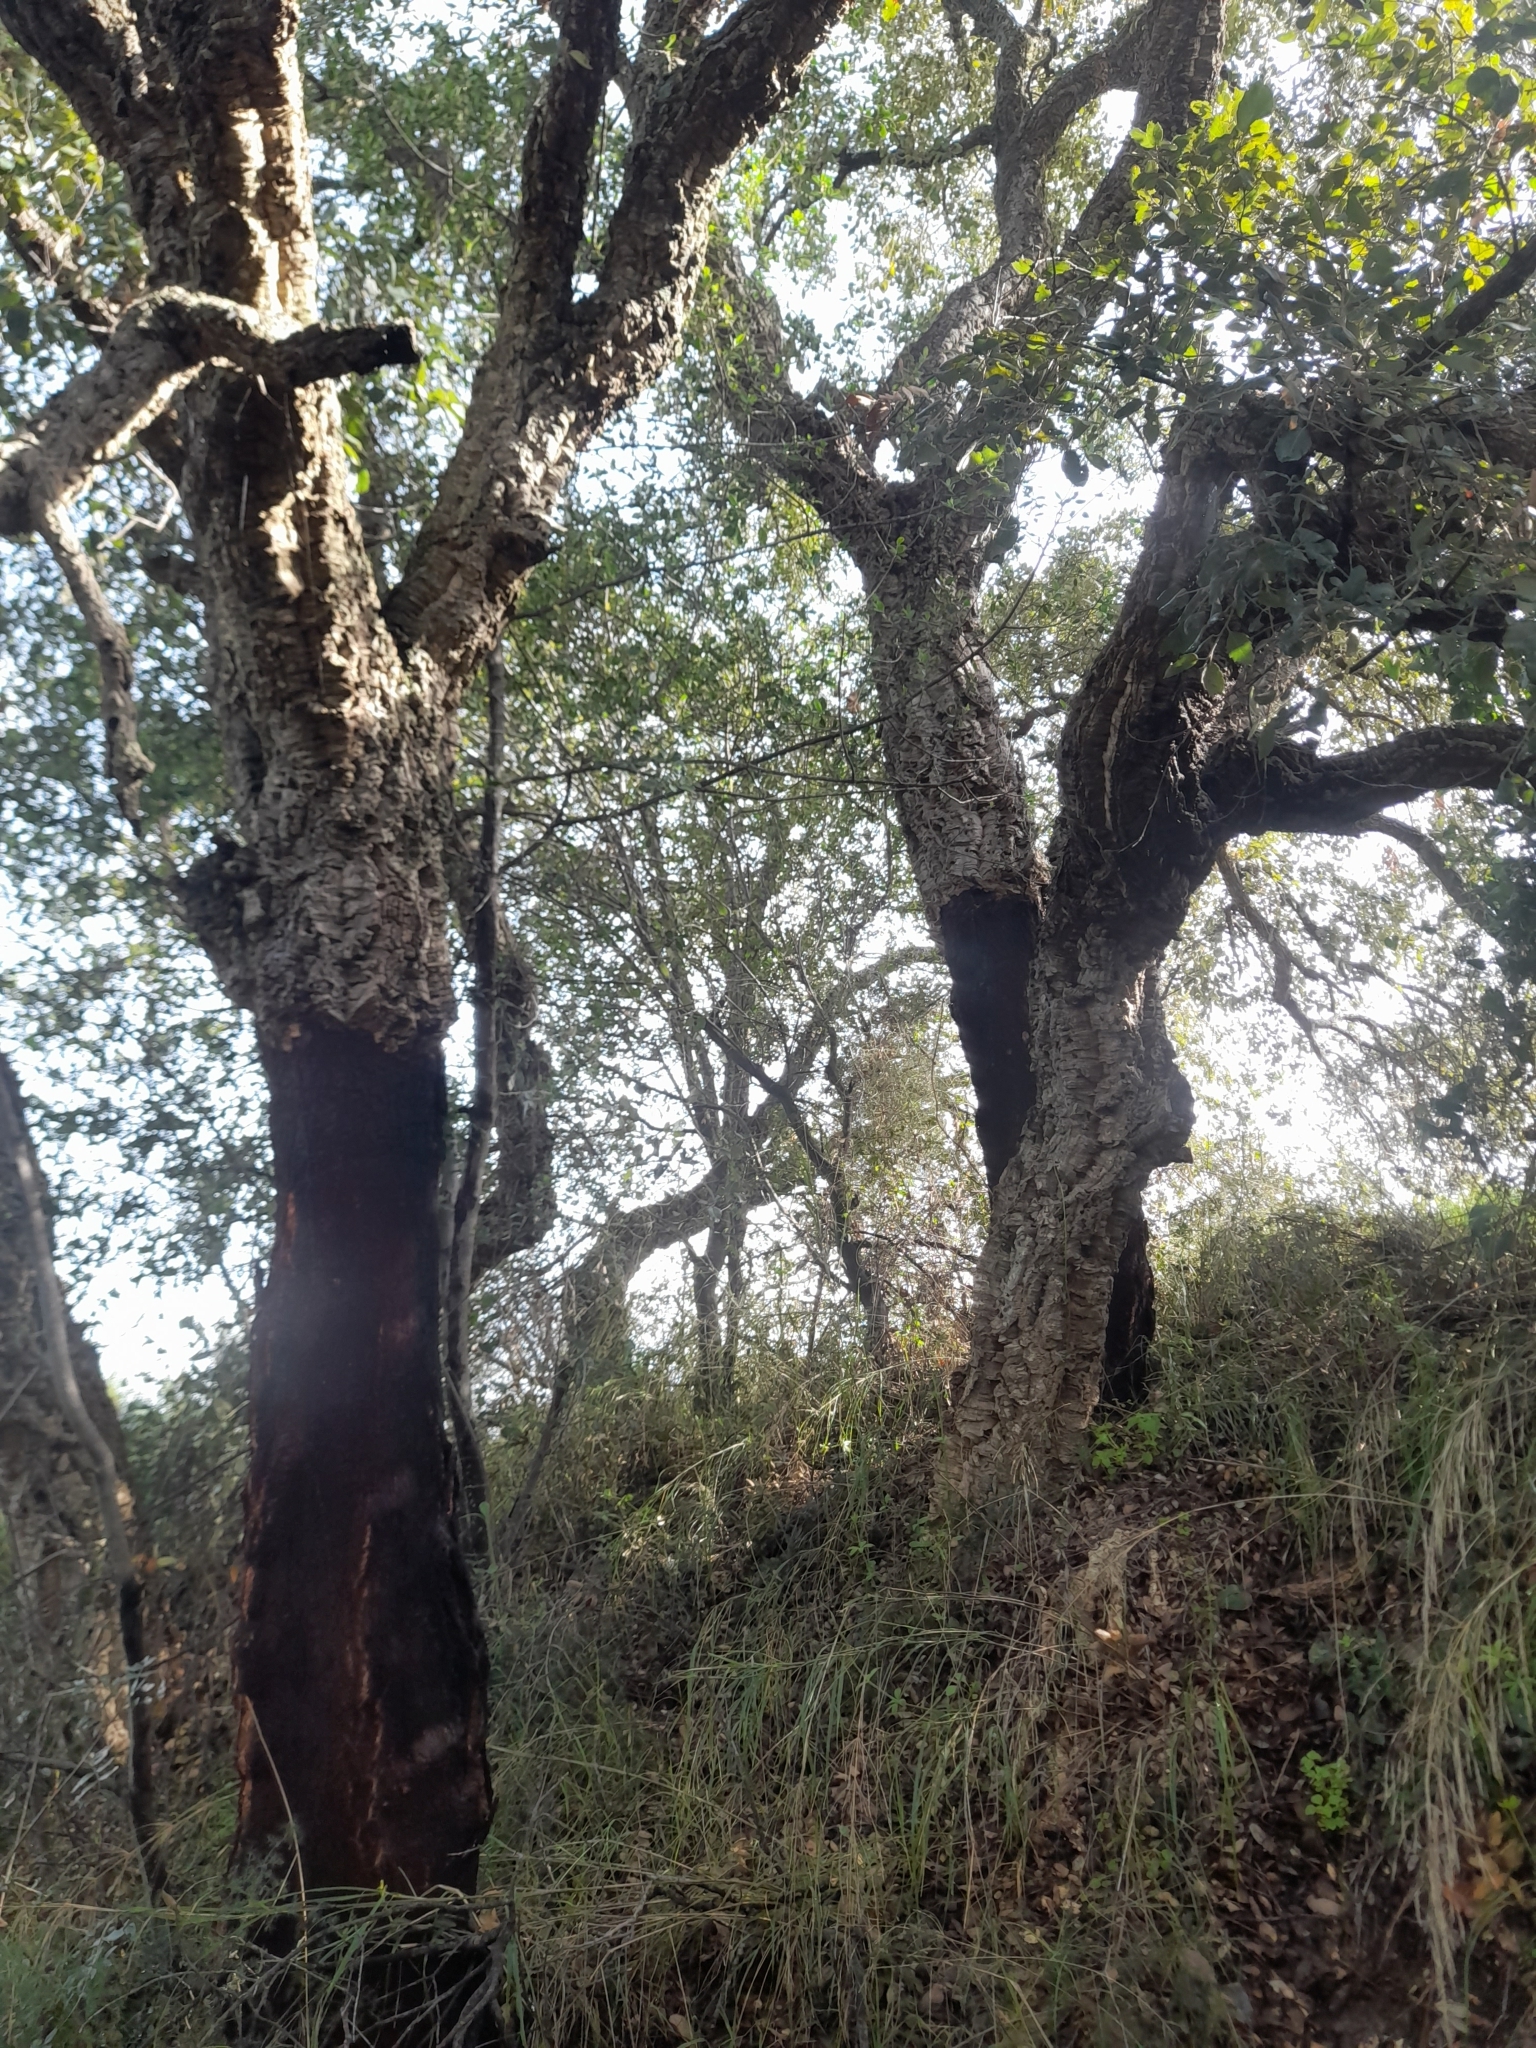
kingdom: Plantae
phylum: Tracheophyta
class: Magnoliopsida
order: Fagales
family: Fagaceae
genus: Quercus
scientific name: Quercus suber
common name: Cork oak
